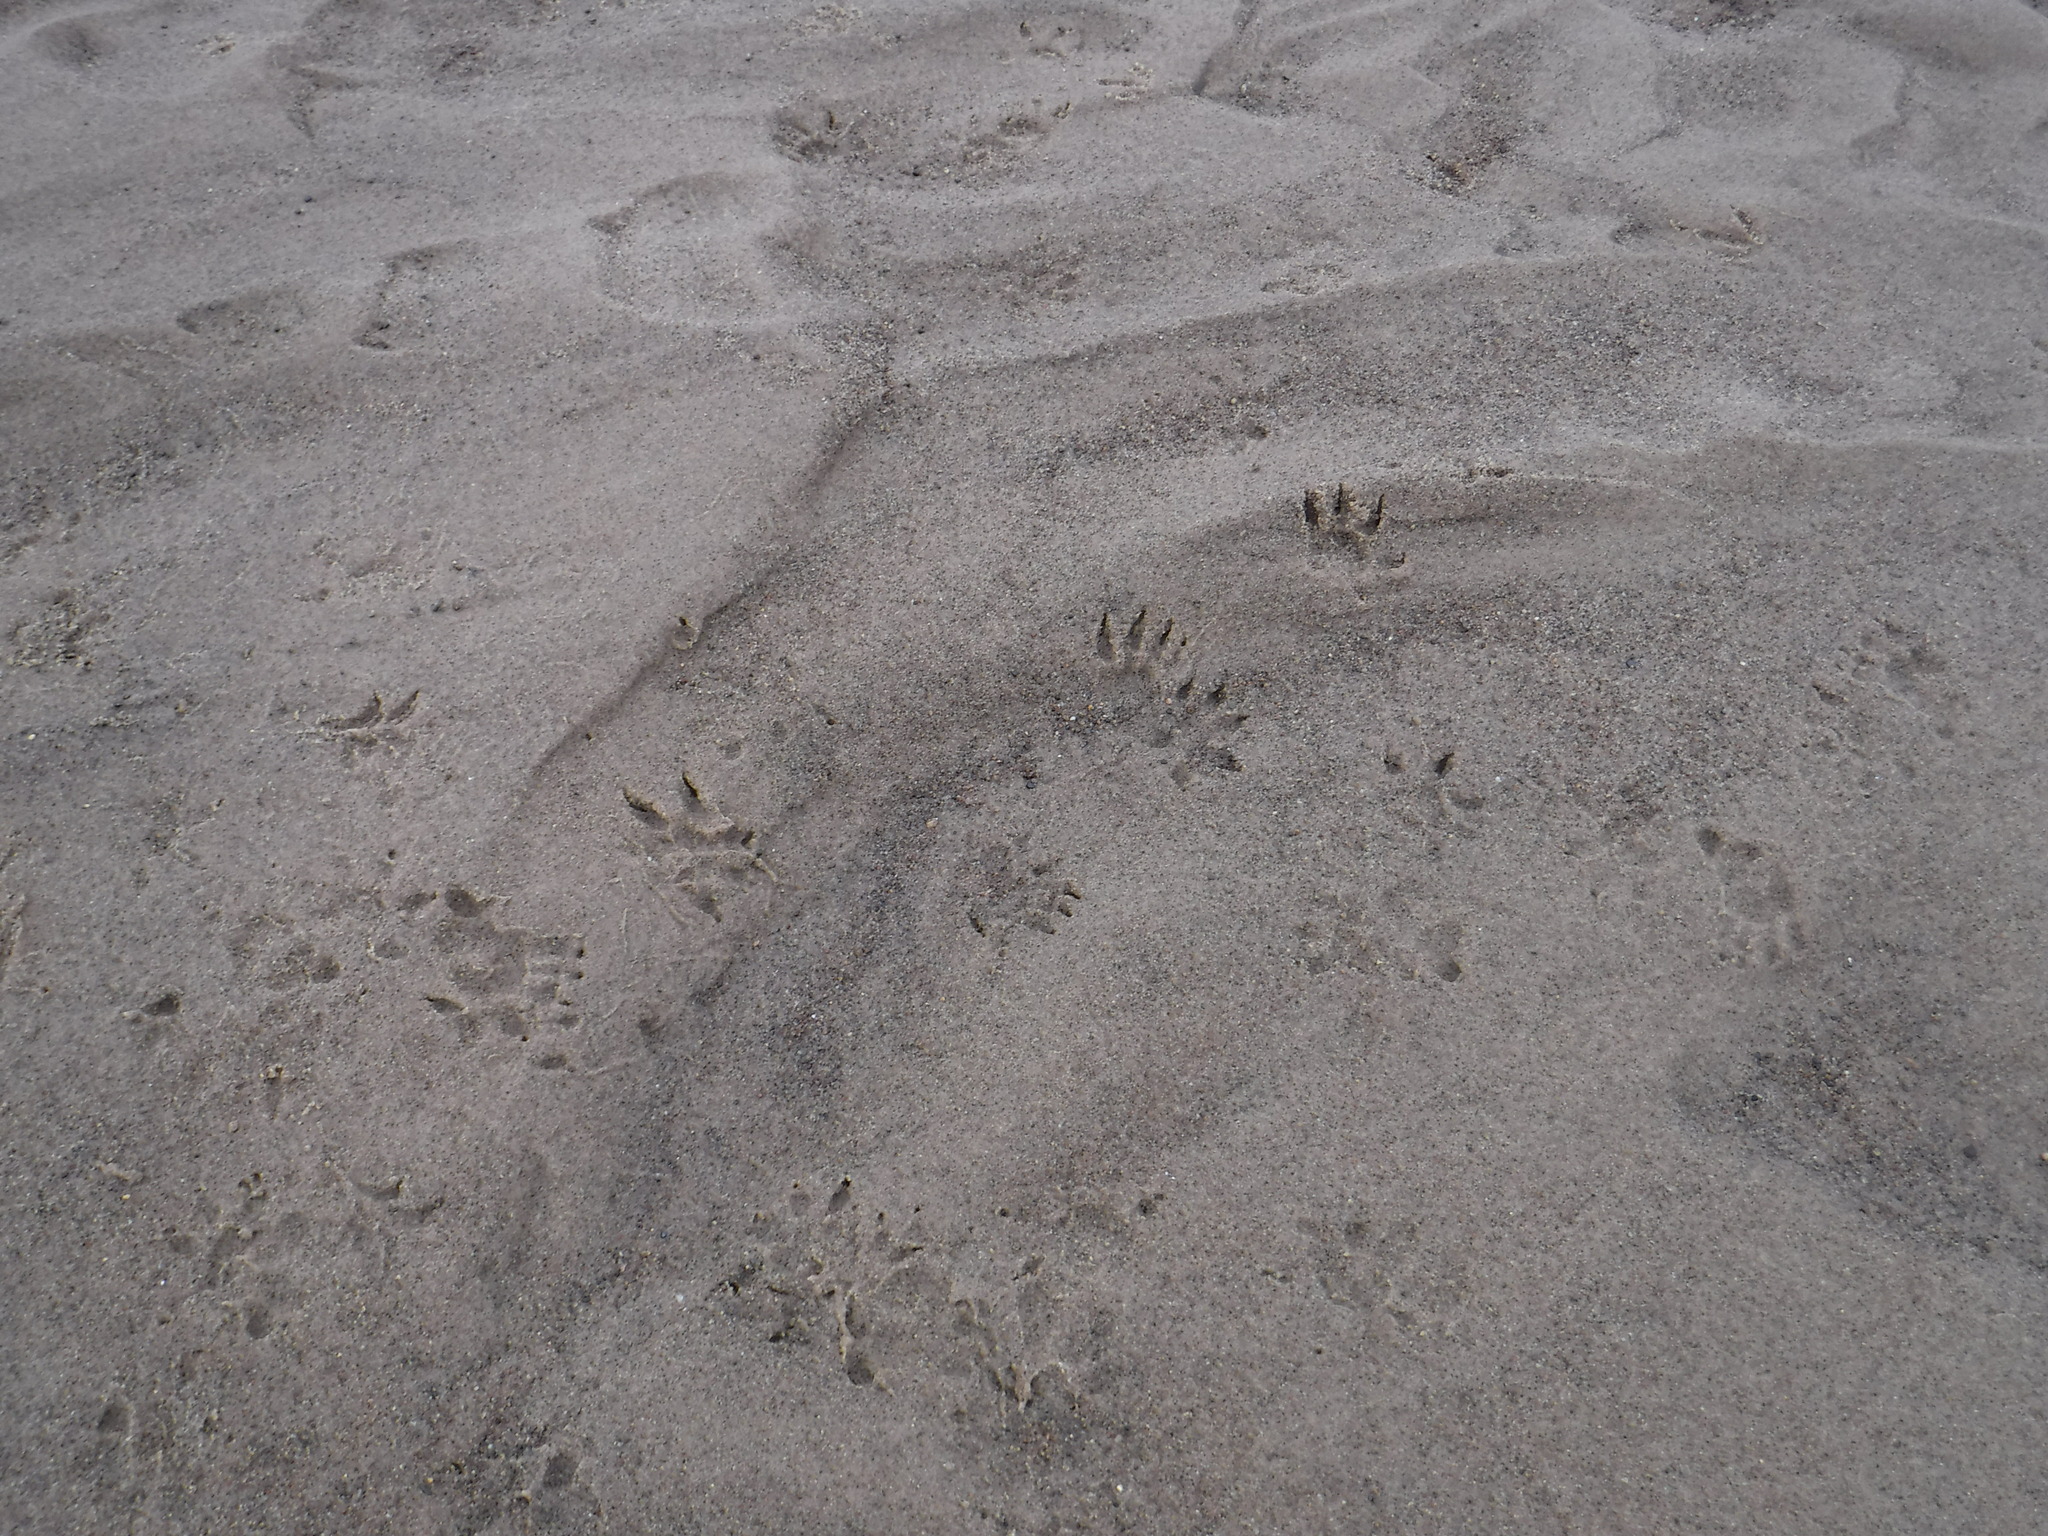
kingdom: Animalia
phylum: Chordata
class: Mammalia
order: Didelphimorphia
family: Didelphidae
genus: Didelphis
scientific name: Didelphis virginiana
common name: Virginia opossum
